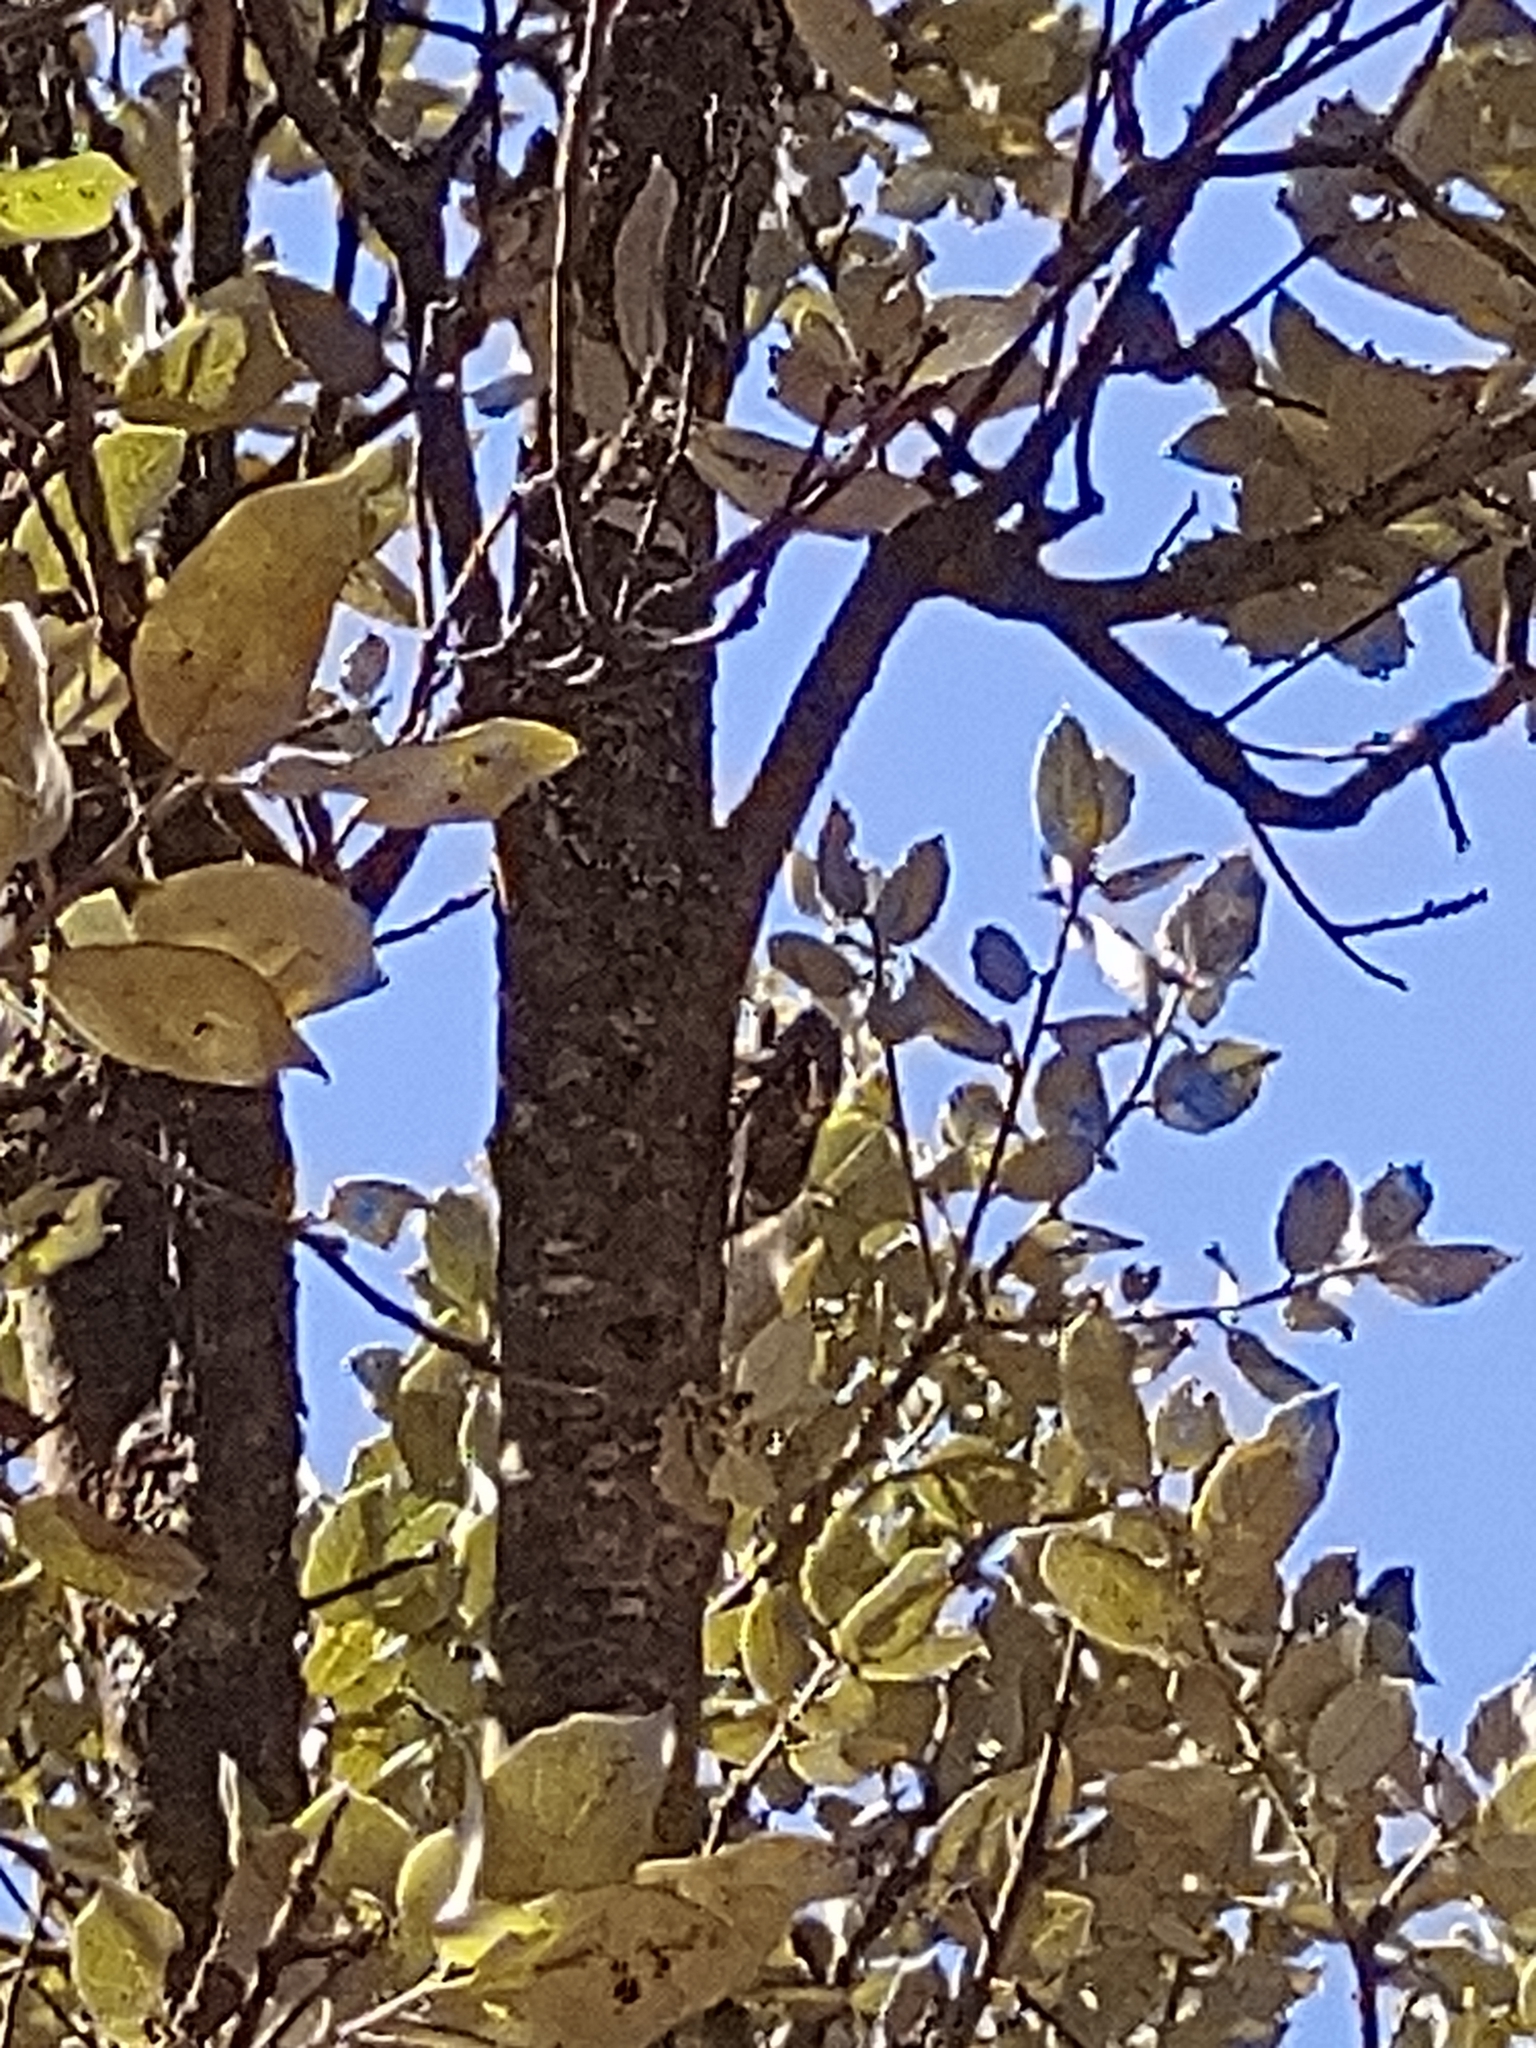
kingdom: Animalia
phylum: Arthropoda
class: Insecta
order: Hemiptera
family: Cicadidae
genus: Lyristes
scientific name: Lyristes plebejus
